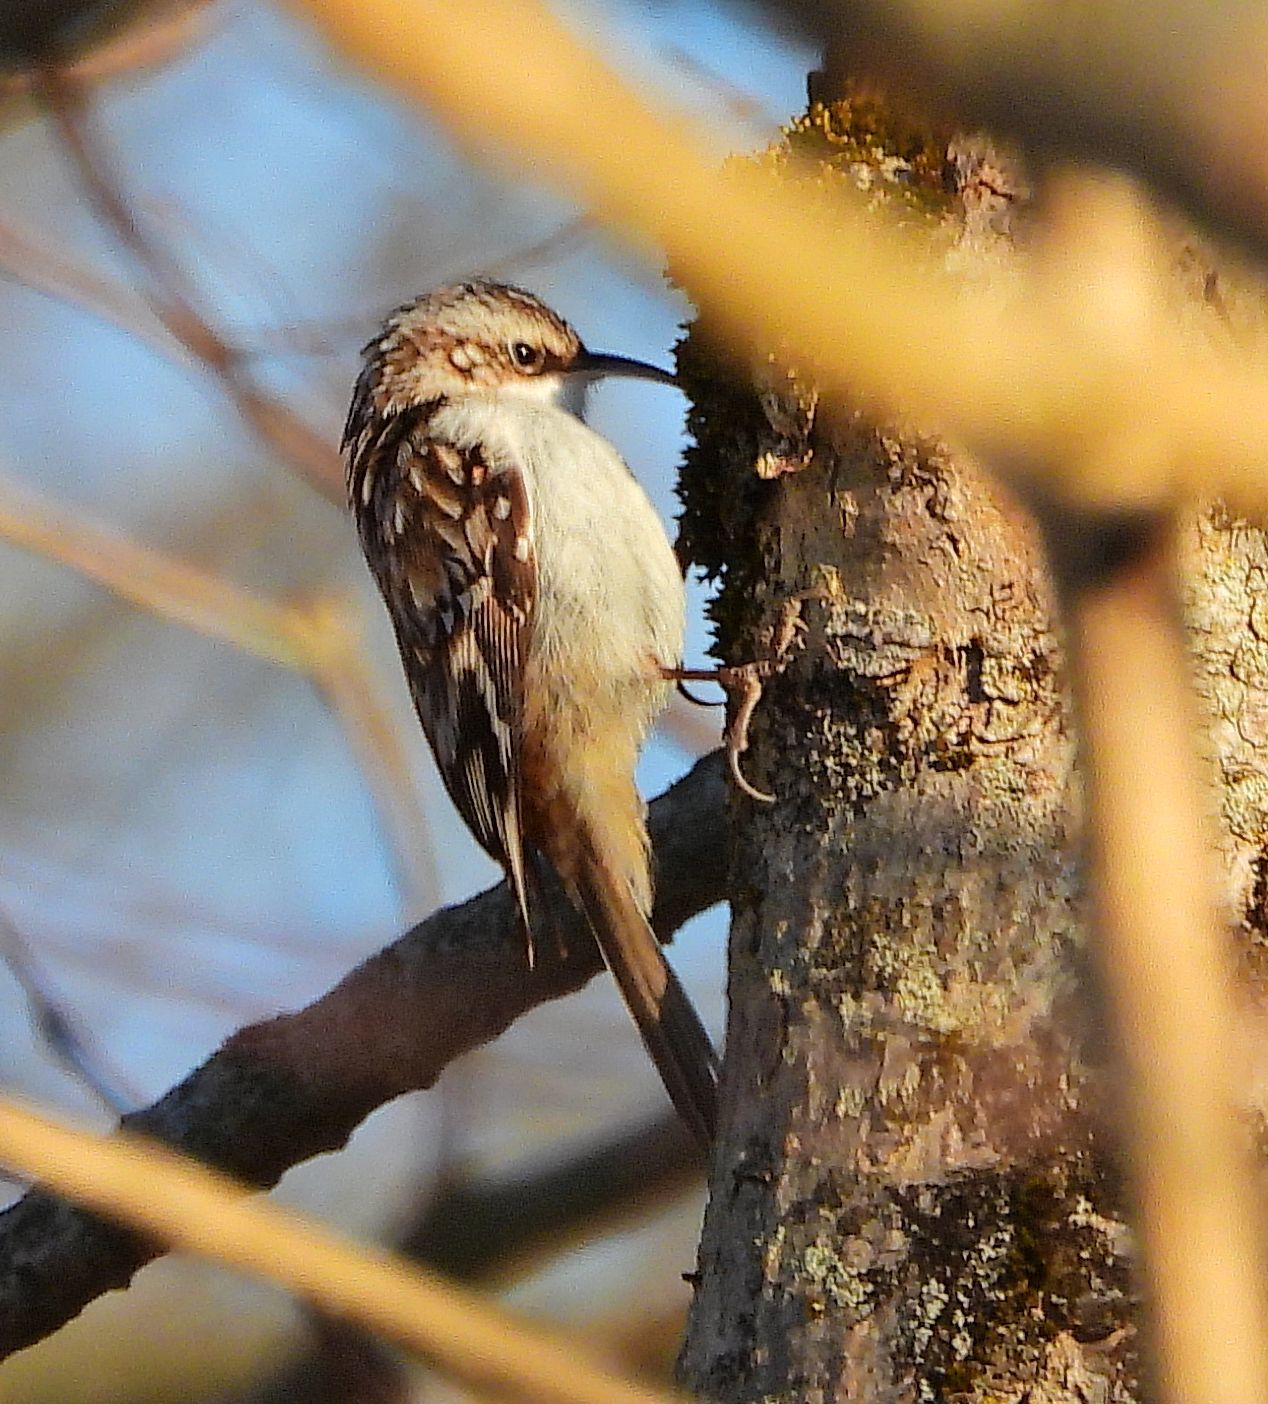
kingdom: Animalia
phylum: Chordata
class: Aves
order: Passeriformes
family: Certhiidae
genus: Certhia
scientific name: Certhia americana
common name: Brown creeper
